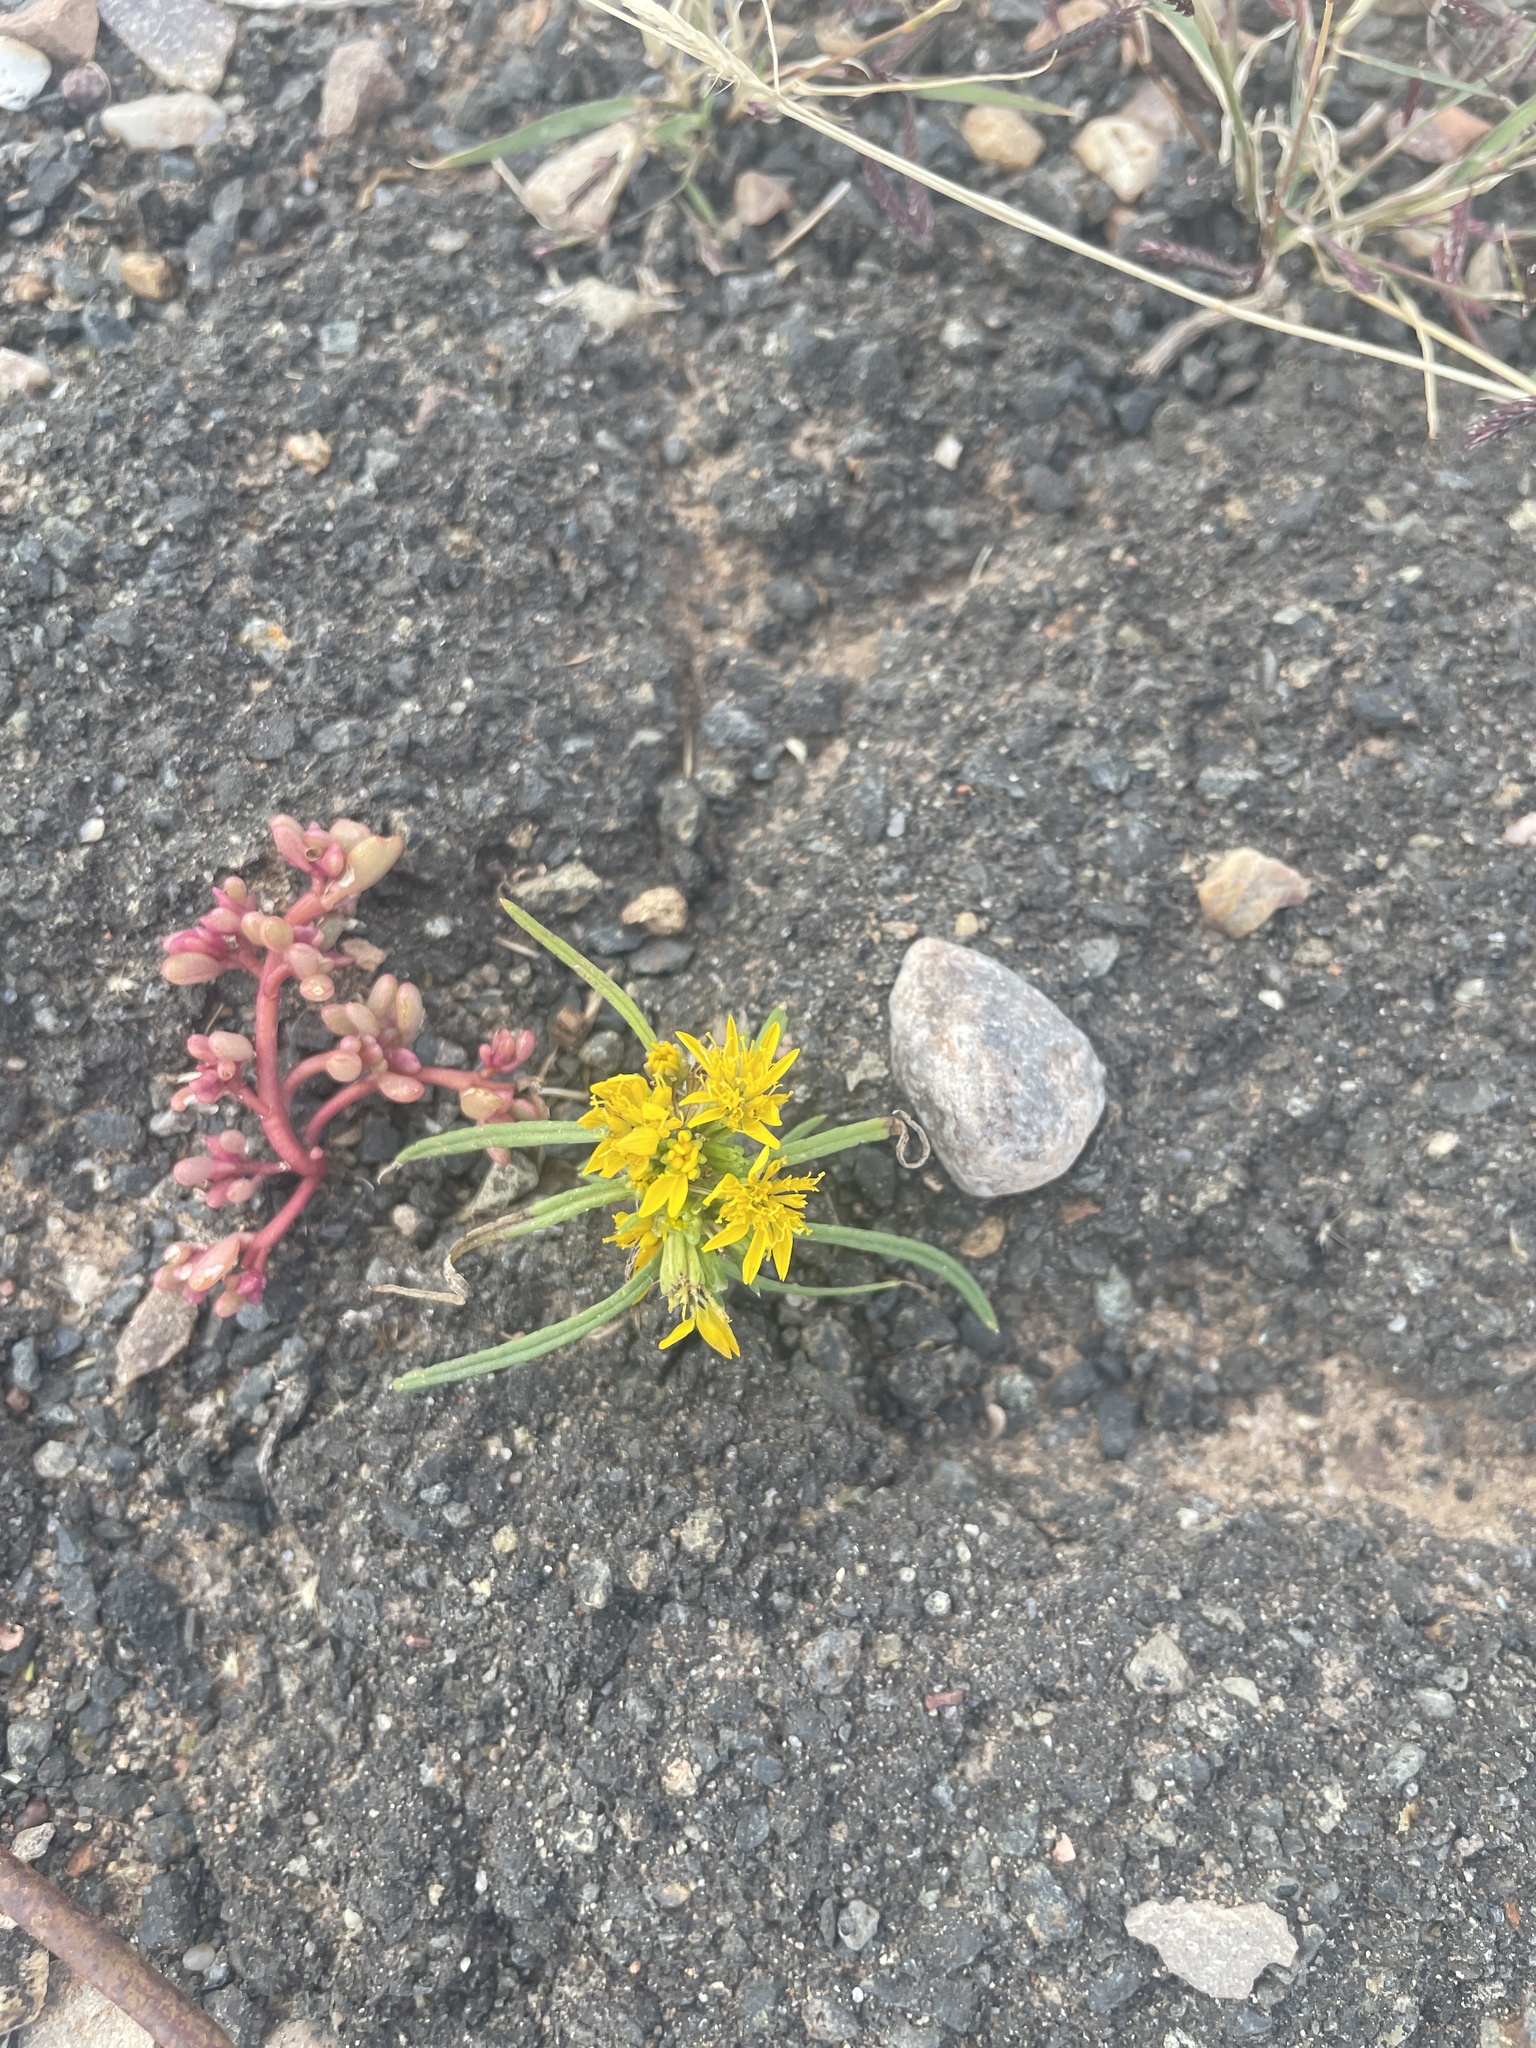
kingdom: Plantae
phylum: Tracheophyta
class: Magnoliopsida
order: Asterales
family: Asteraceae
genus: Pectis
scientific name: Pectis angustifolia
